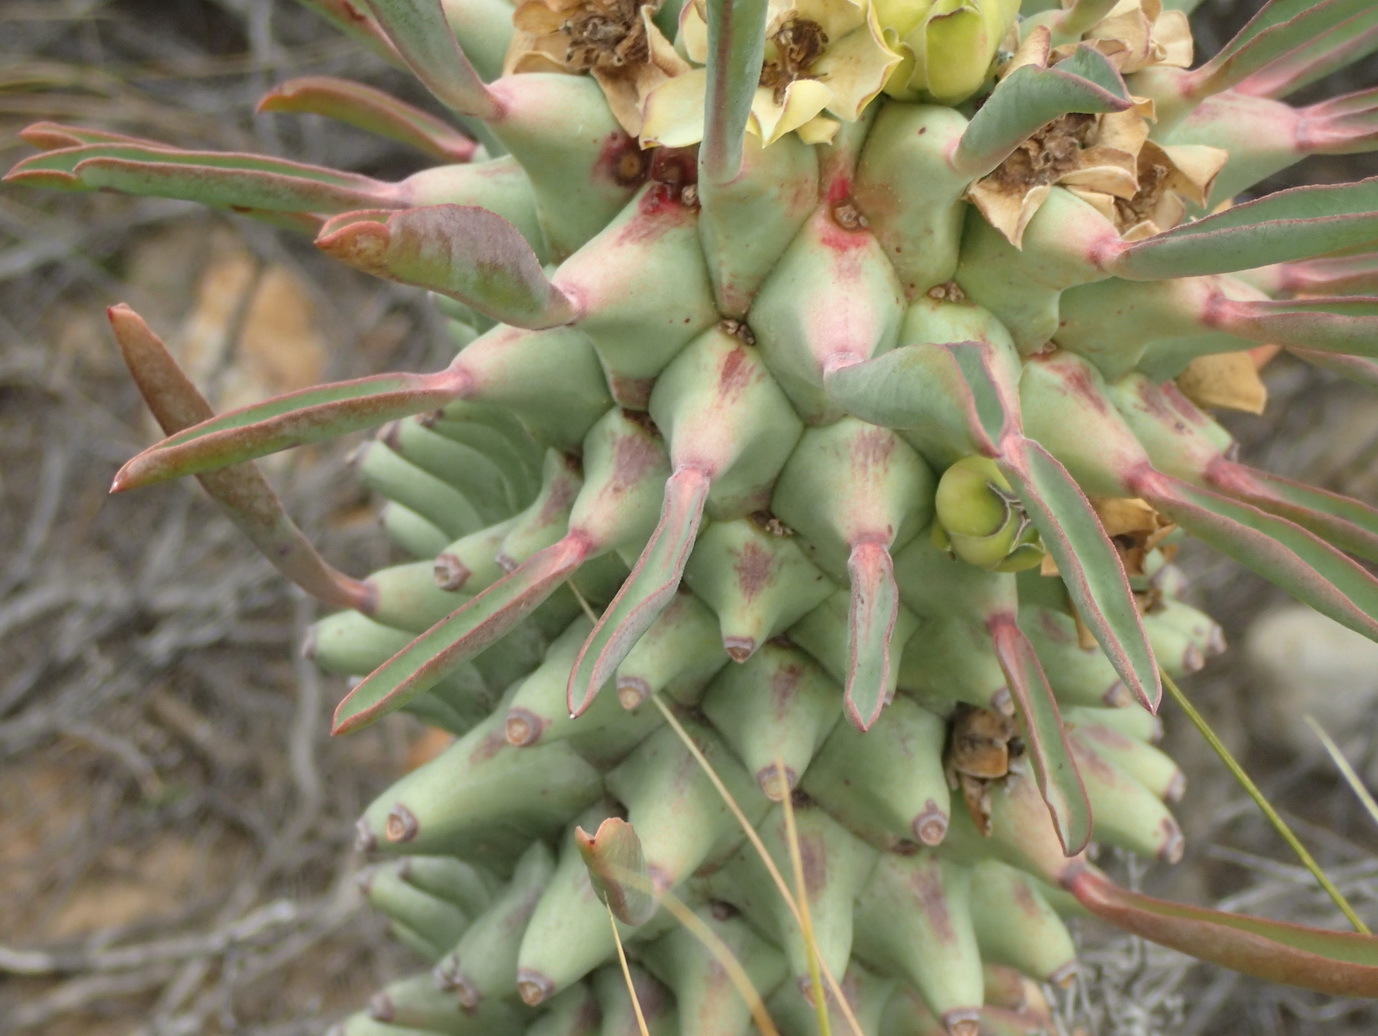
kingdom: Plantae
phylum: Tracheophyta
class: Magnoliopsida
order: Malpighiales
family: Euphorbiaceae
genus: Euphorbia
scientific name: Euphorbia clandestina
